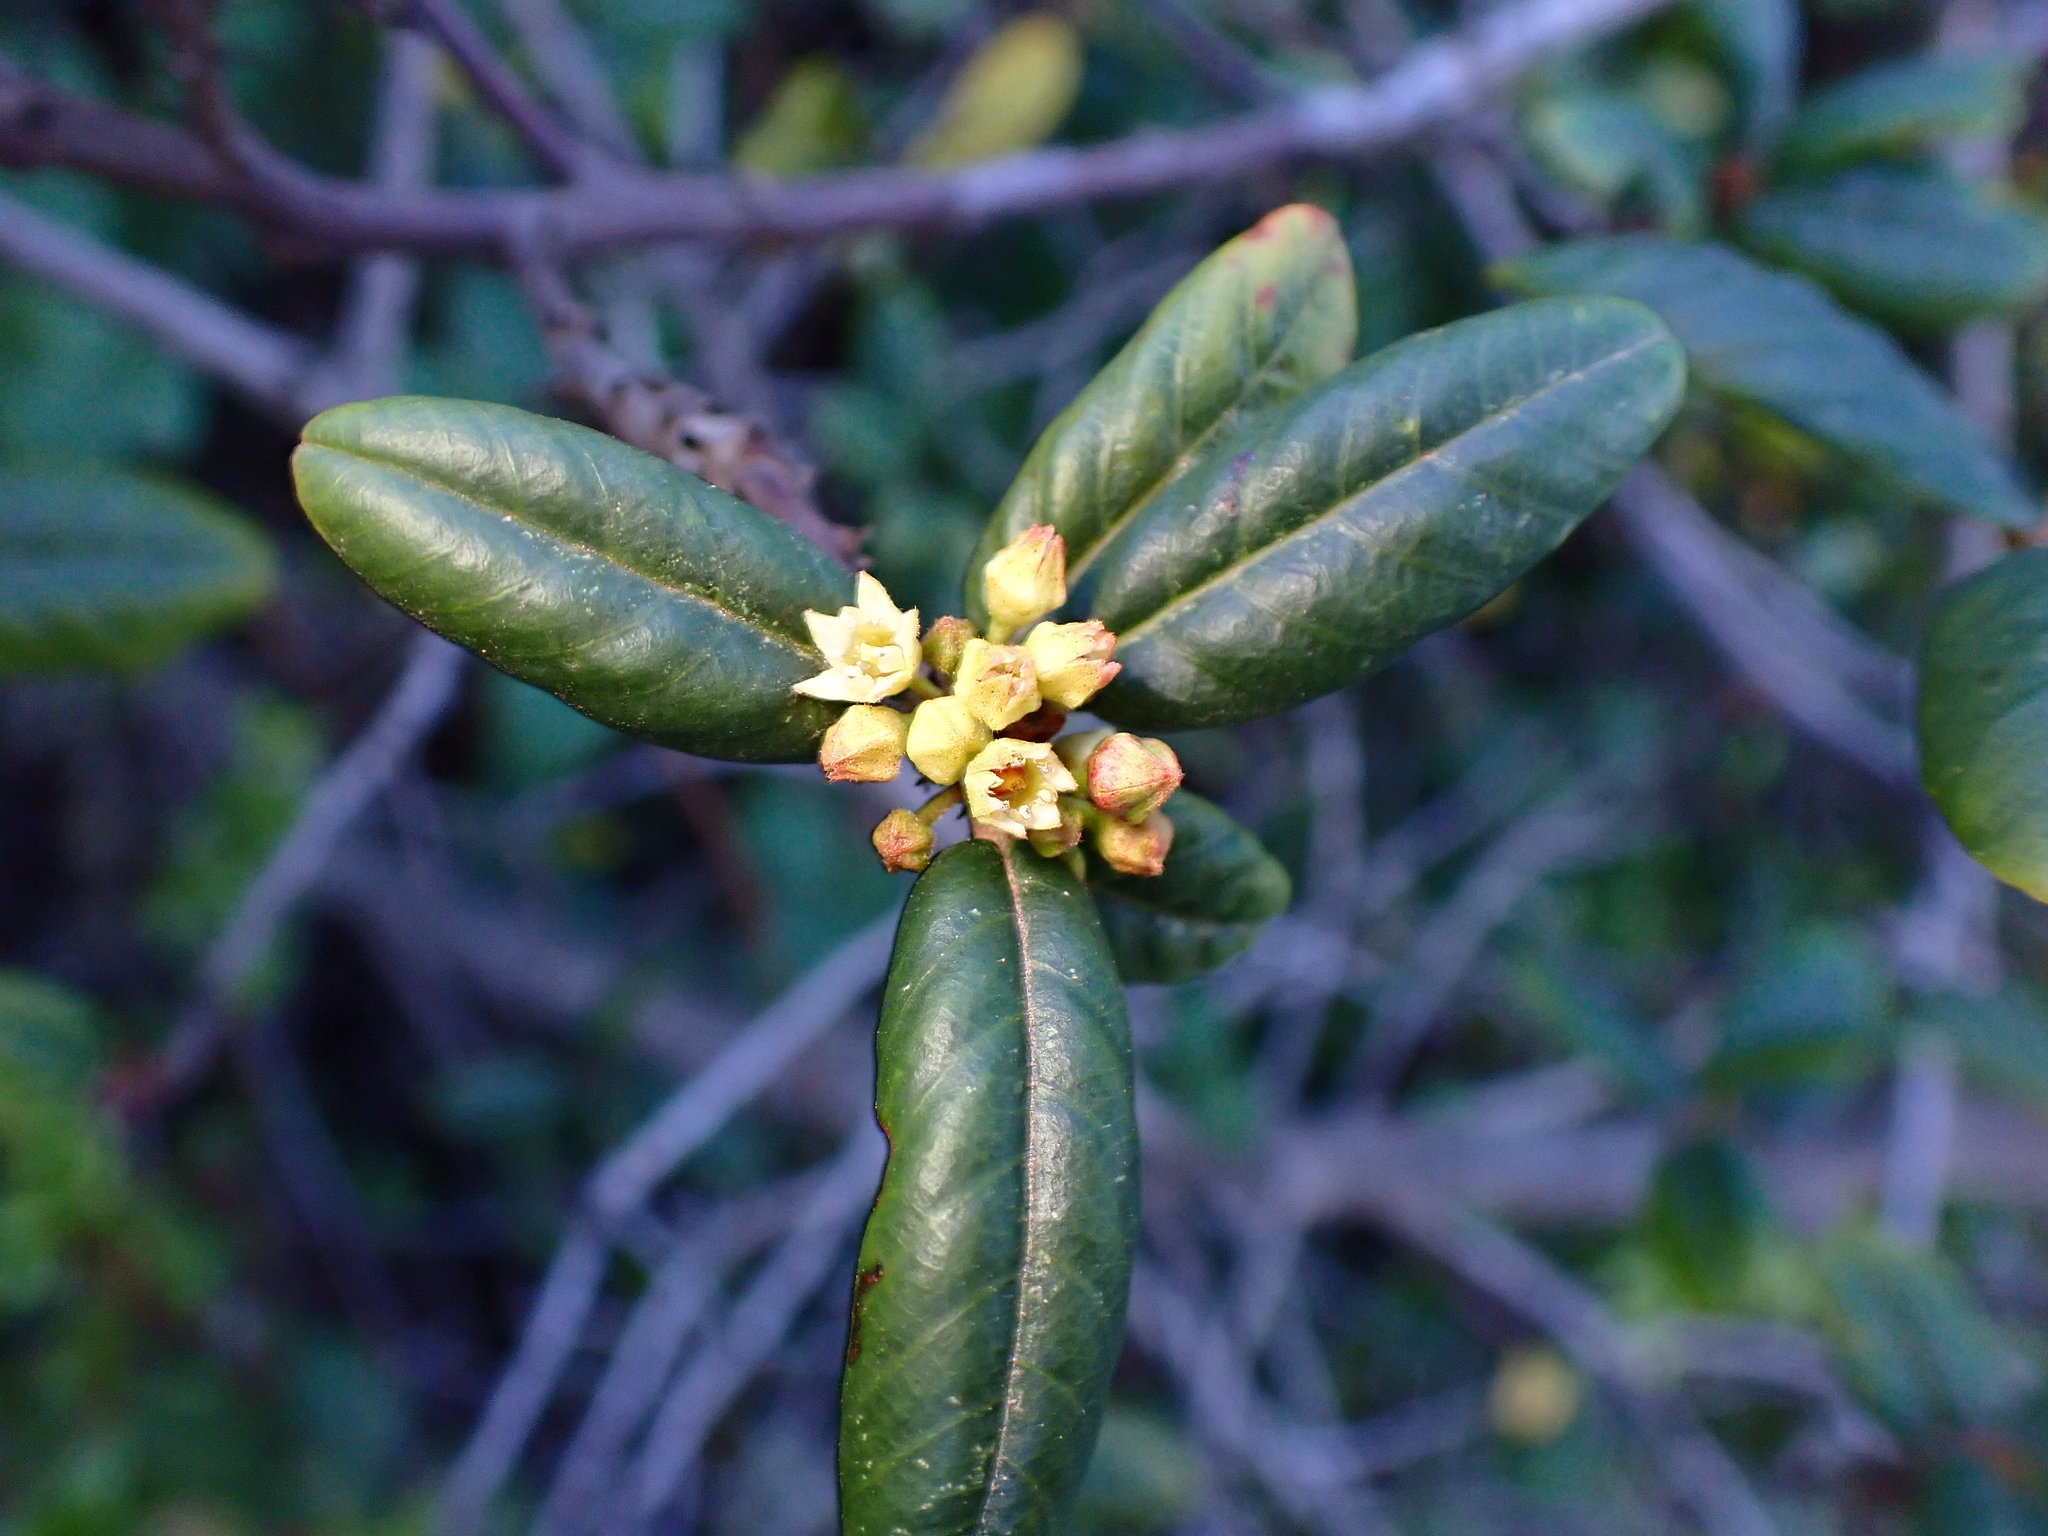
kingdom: Plantae
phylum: Tracheophyta
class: Magnoliopsida
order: Rosales
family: Rhamnaceae
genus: Frangula
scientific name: Frangula californica
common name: California buckthorn
